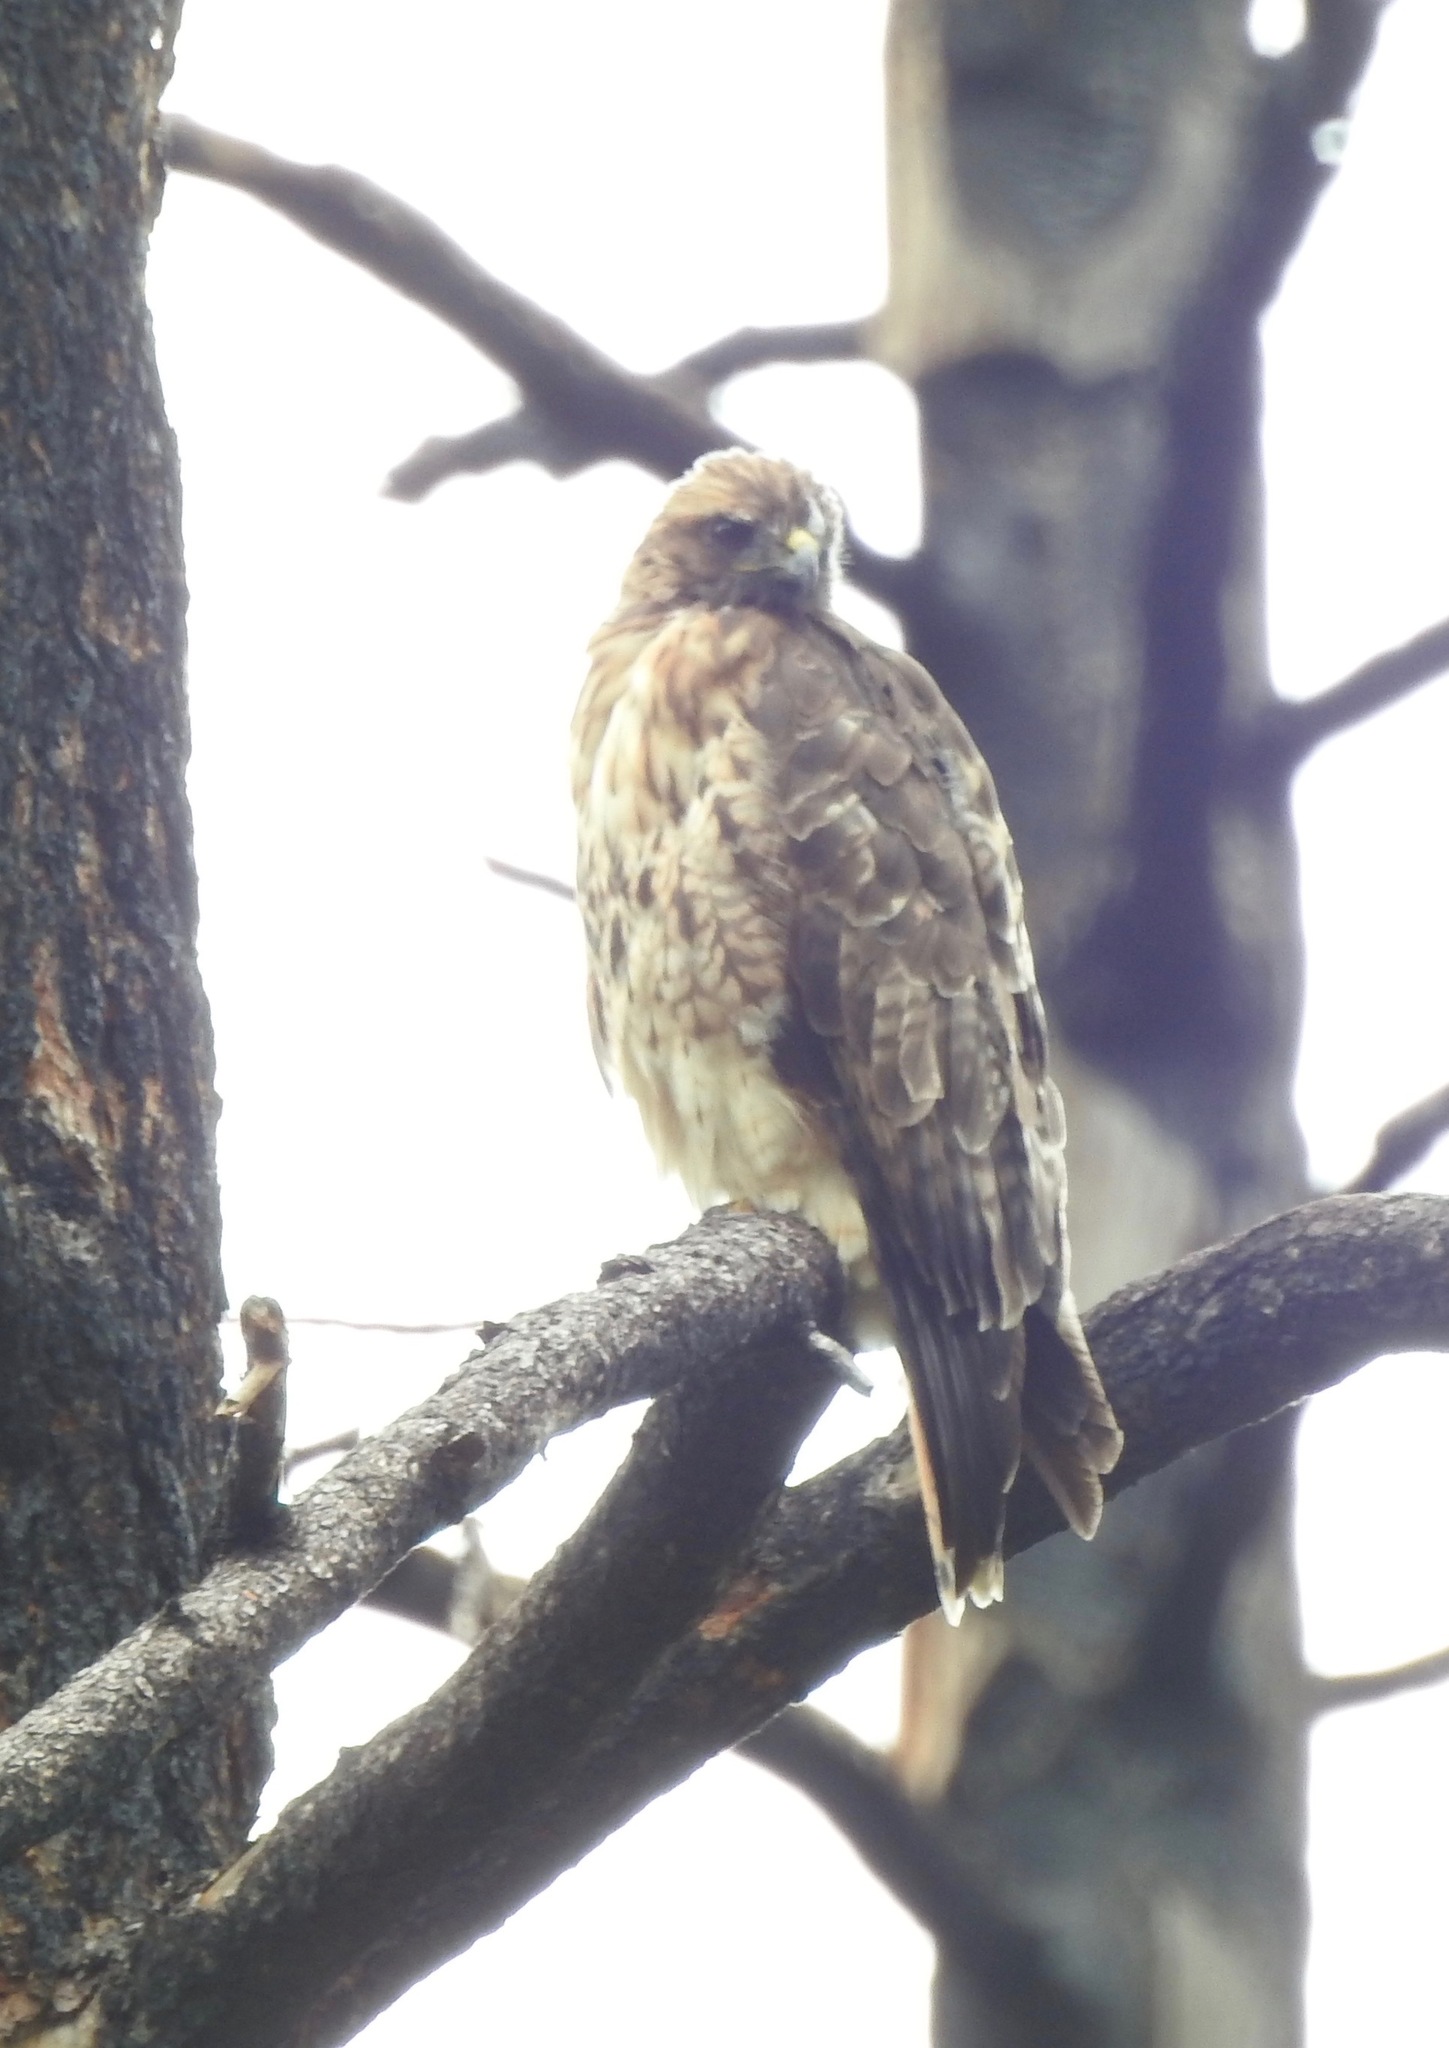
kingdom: Animalia
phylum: Chordata
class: Aves
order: Accipitriformes
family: Accipitridae
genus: Buteo
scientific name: Buteo jamaicensis
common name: Red-tailed hawk
